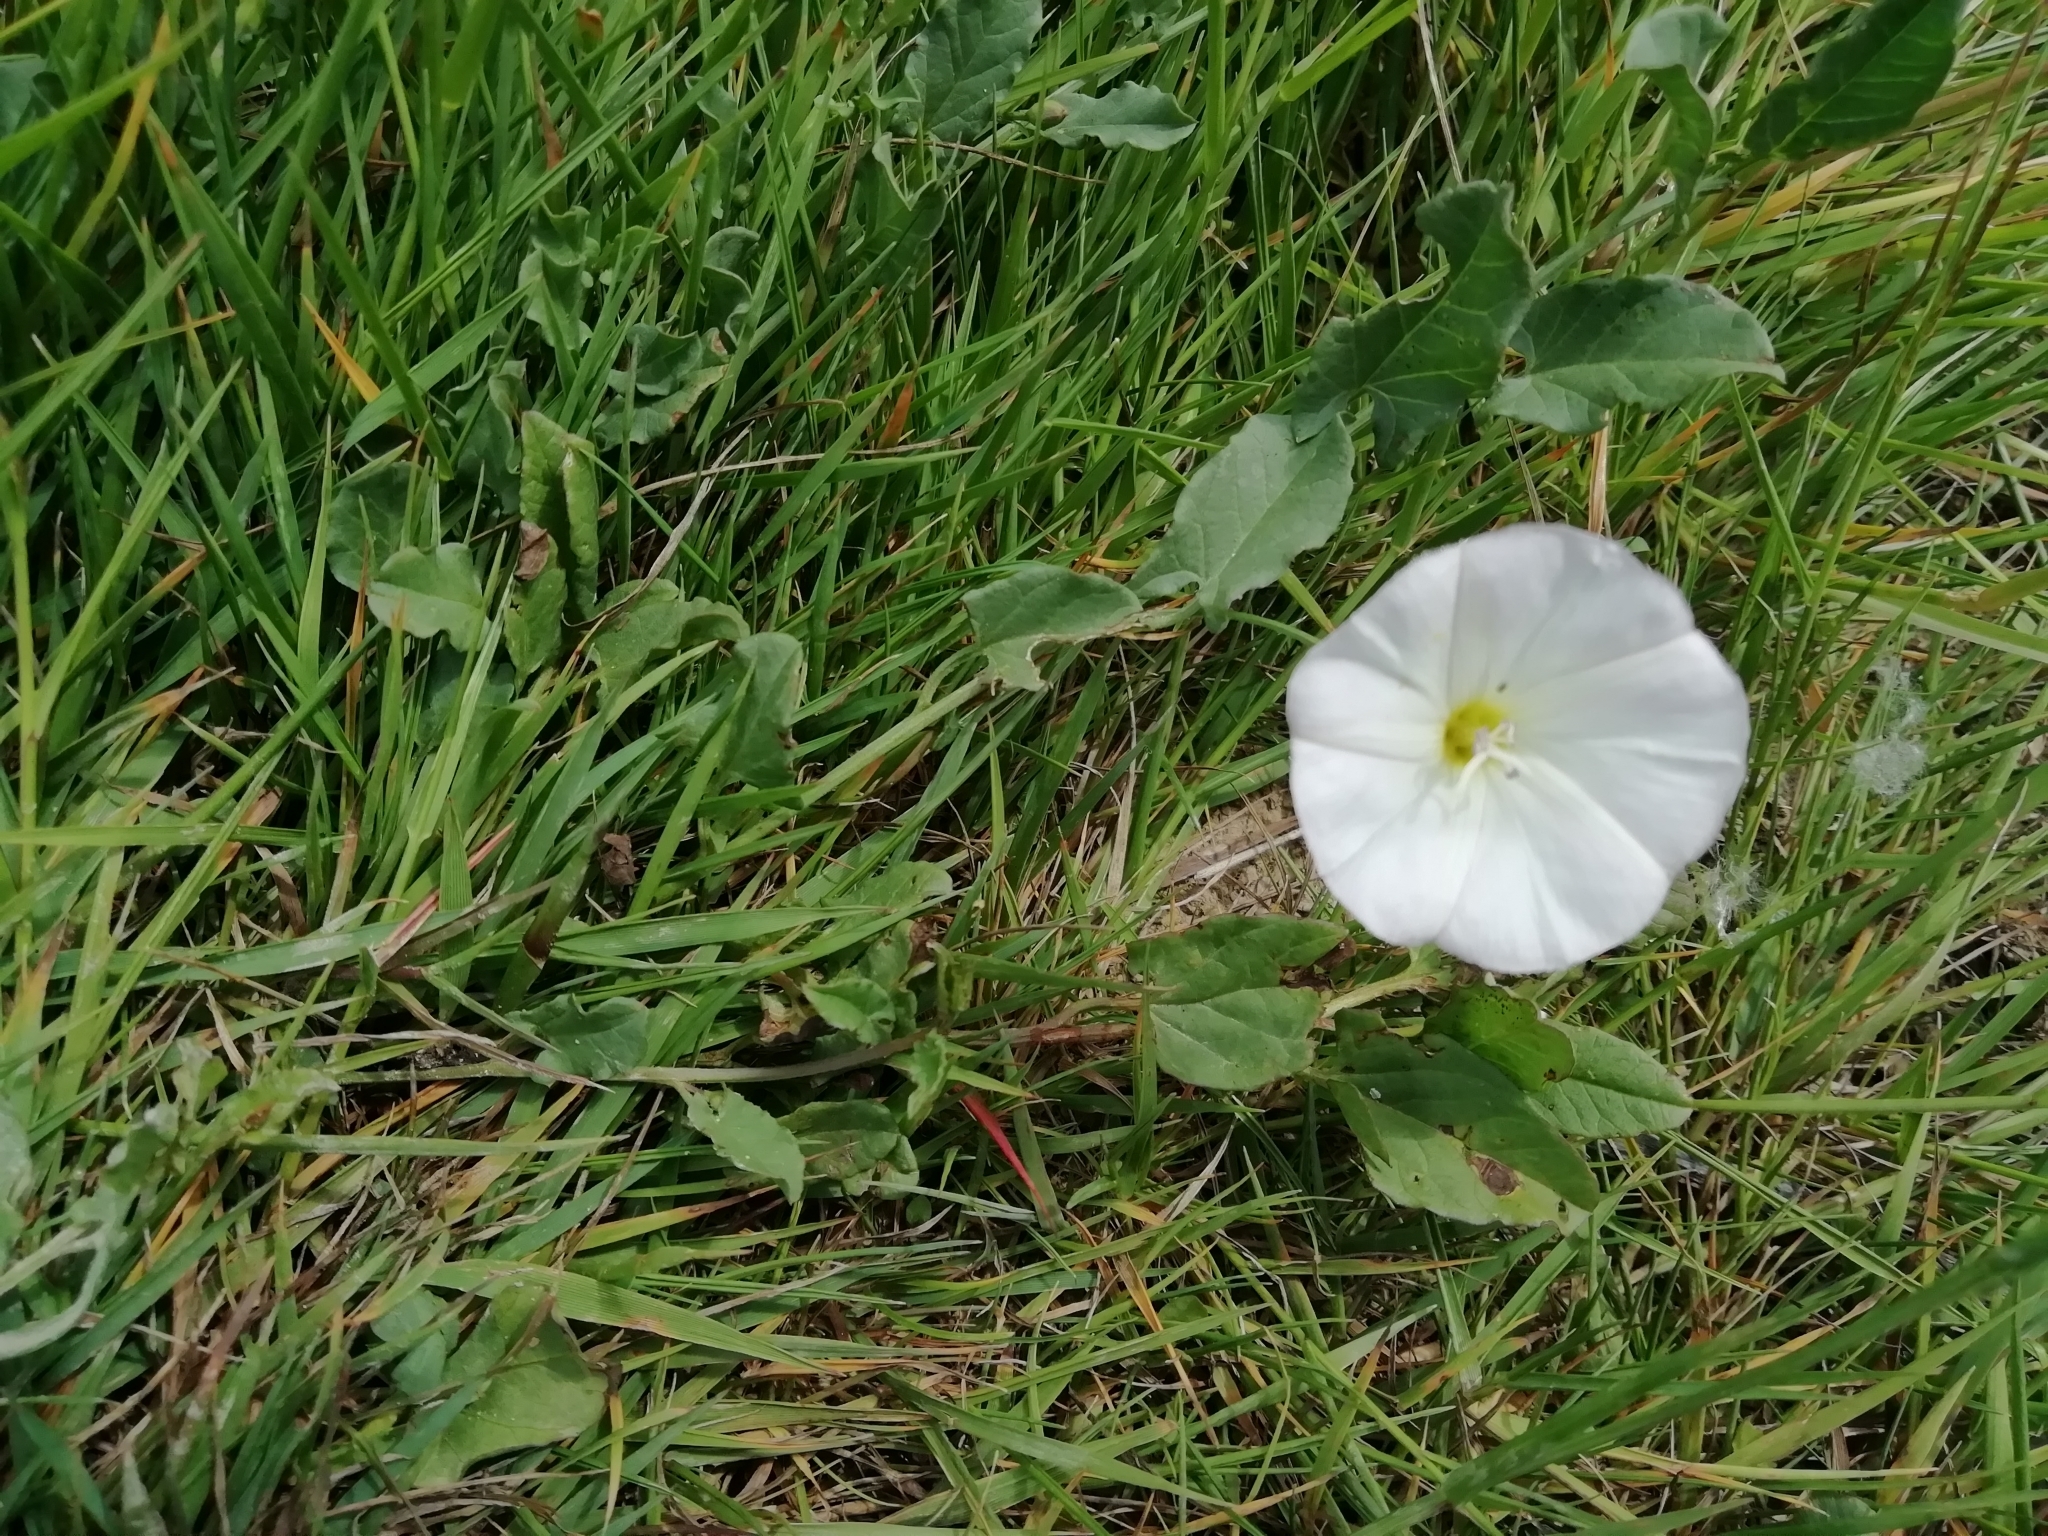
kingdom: Plantae
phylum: Tracheophyta
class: Magnoliopsida
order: Solanales
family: Convolvulaceae
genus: Convolvulus
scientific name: Convolvulus arvensis
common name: Field bindweed
